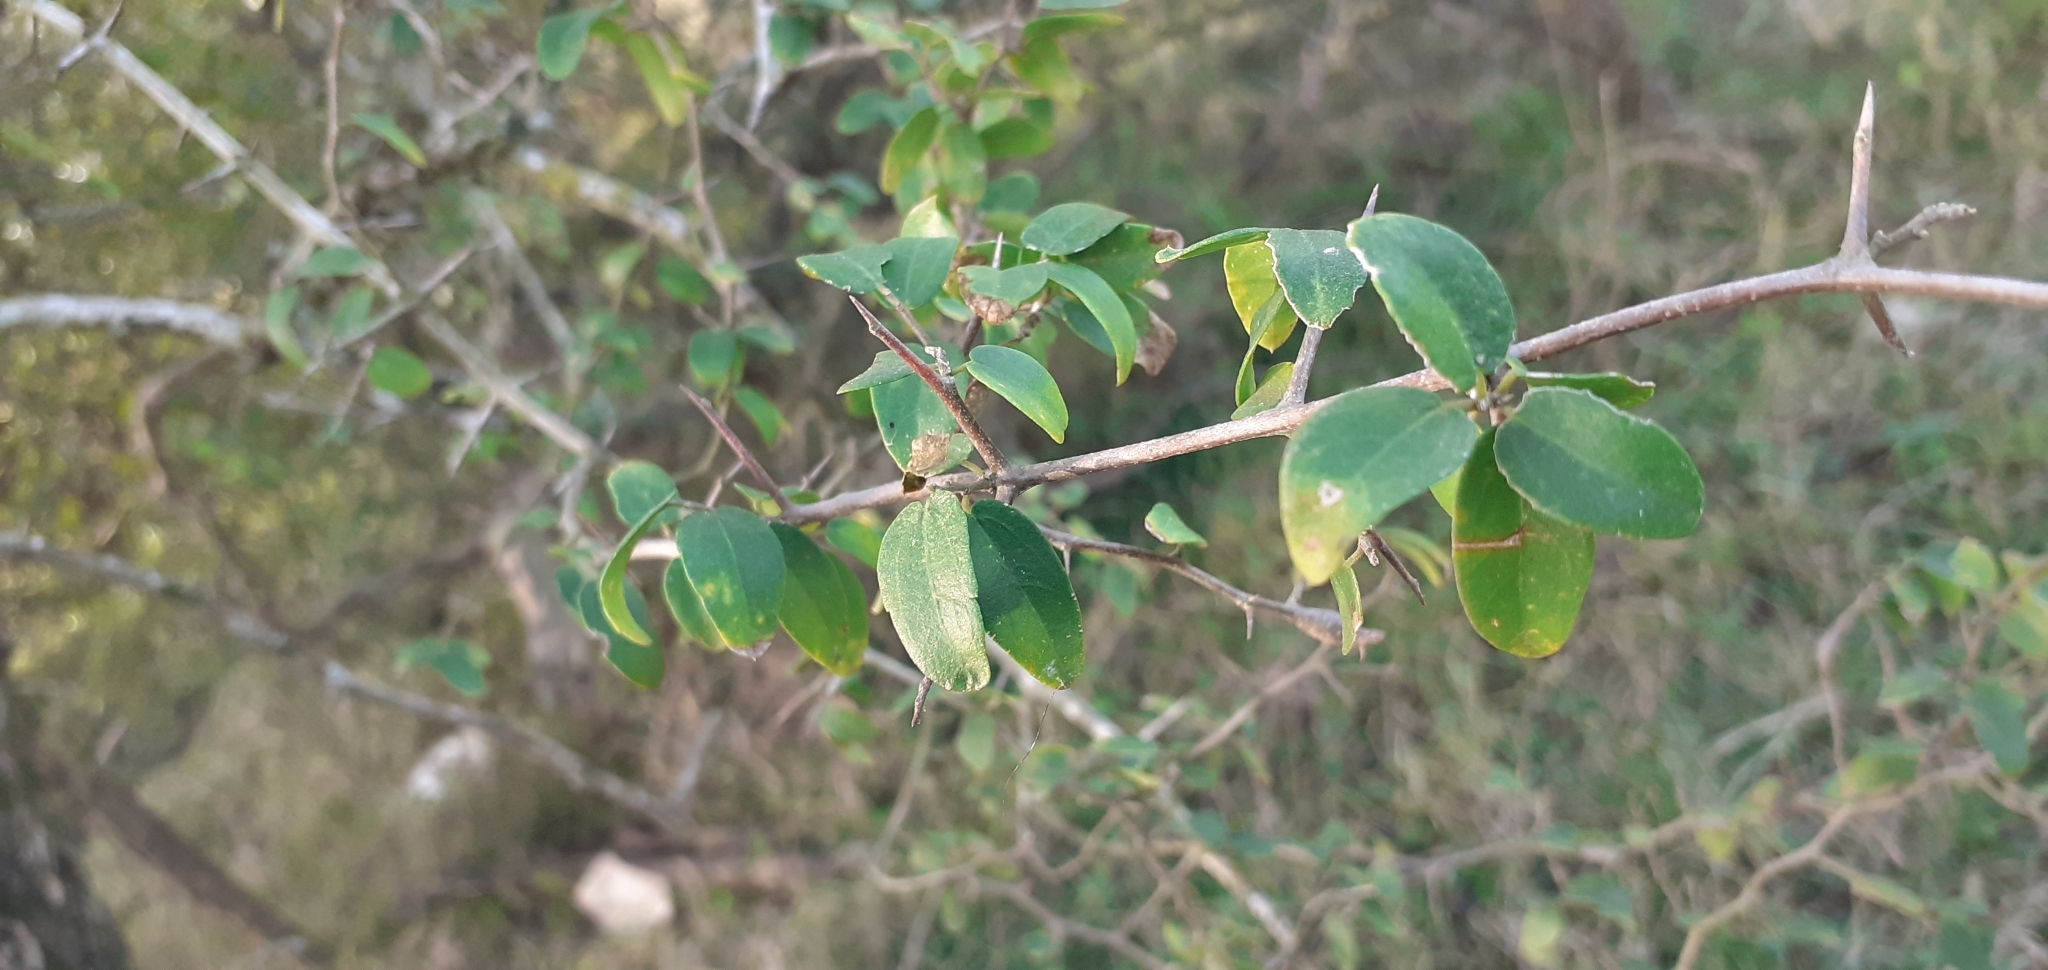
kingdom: Plantae
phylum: Tracheophyta
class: Magnoliopsida
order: Rosales
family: Cannabaceae
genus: Celtis
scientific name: Celtis pallida
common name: Desert hackberry
